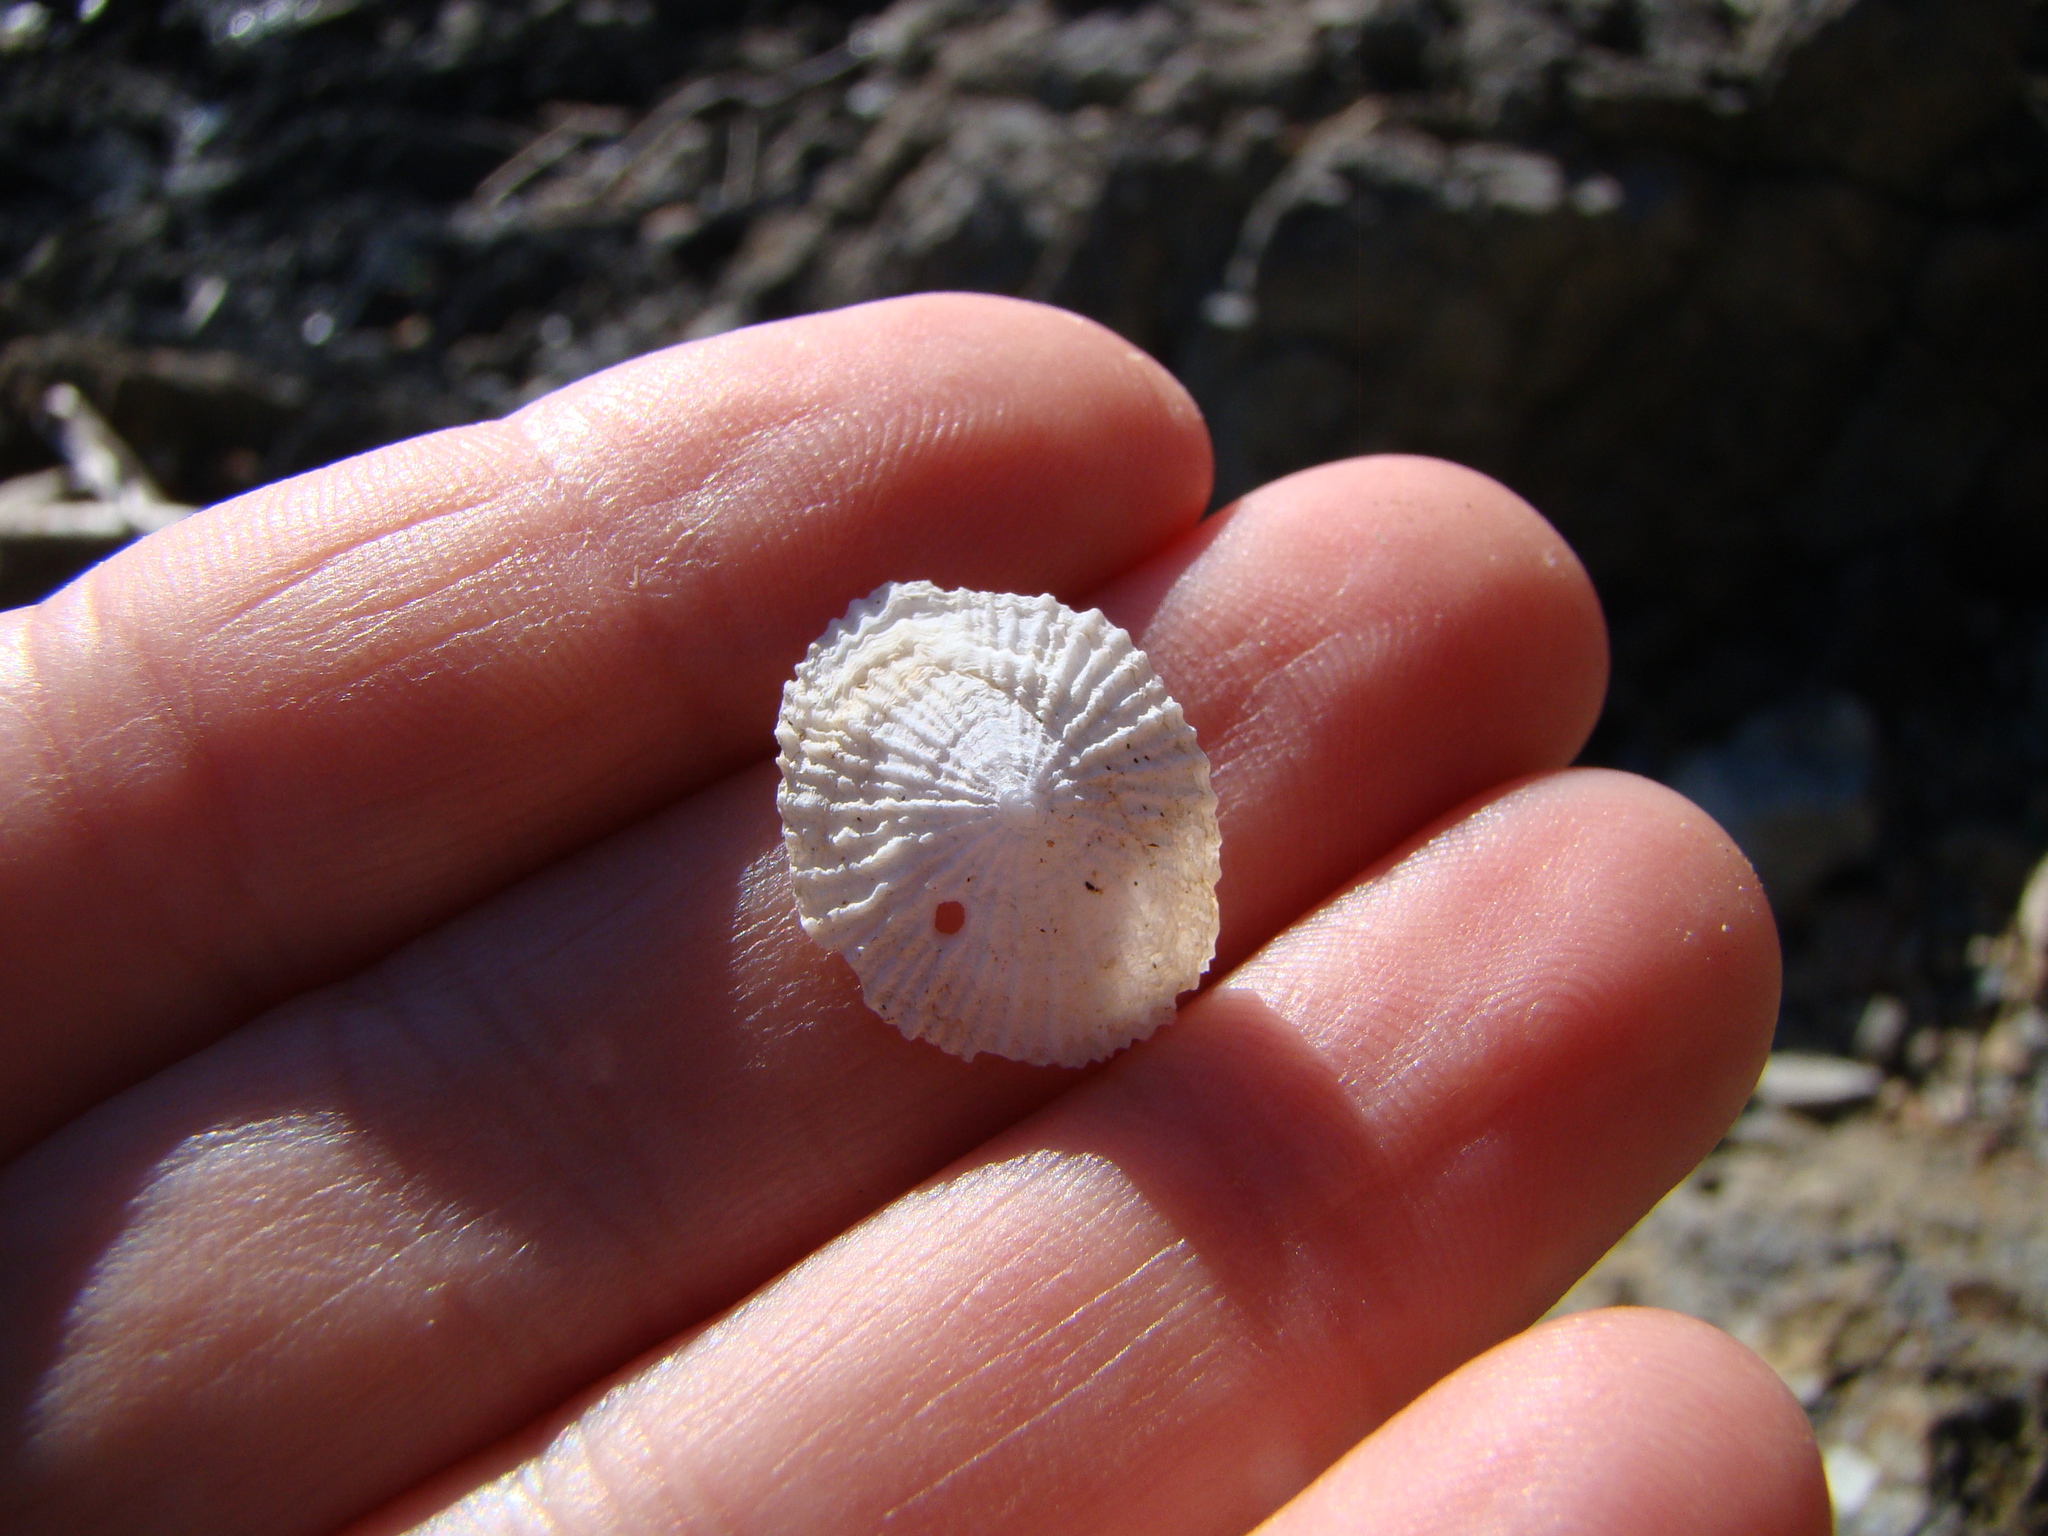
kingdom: Animalia
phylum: Mollusca
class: Gastropoda
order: Ellobiida
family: Trimusculidae
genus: Trimusculus
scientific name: Trimusculus conicus
